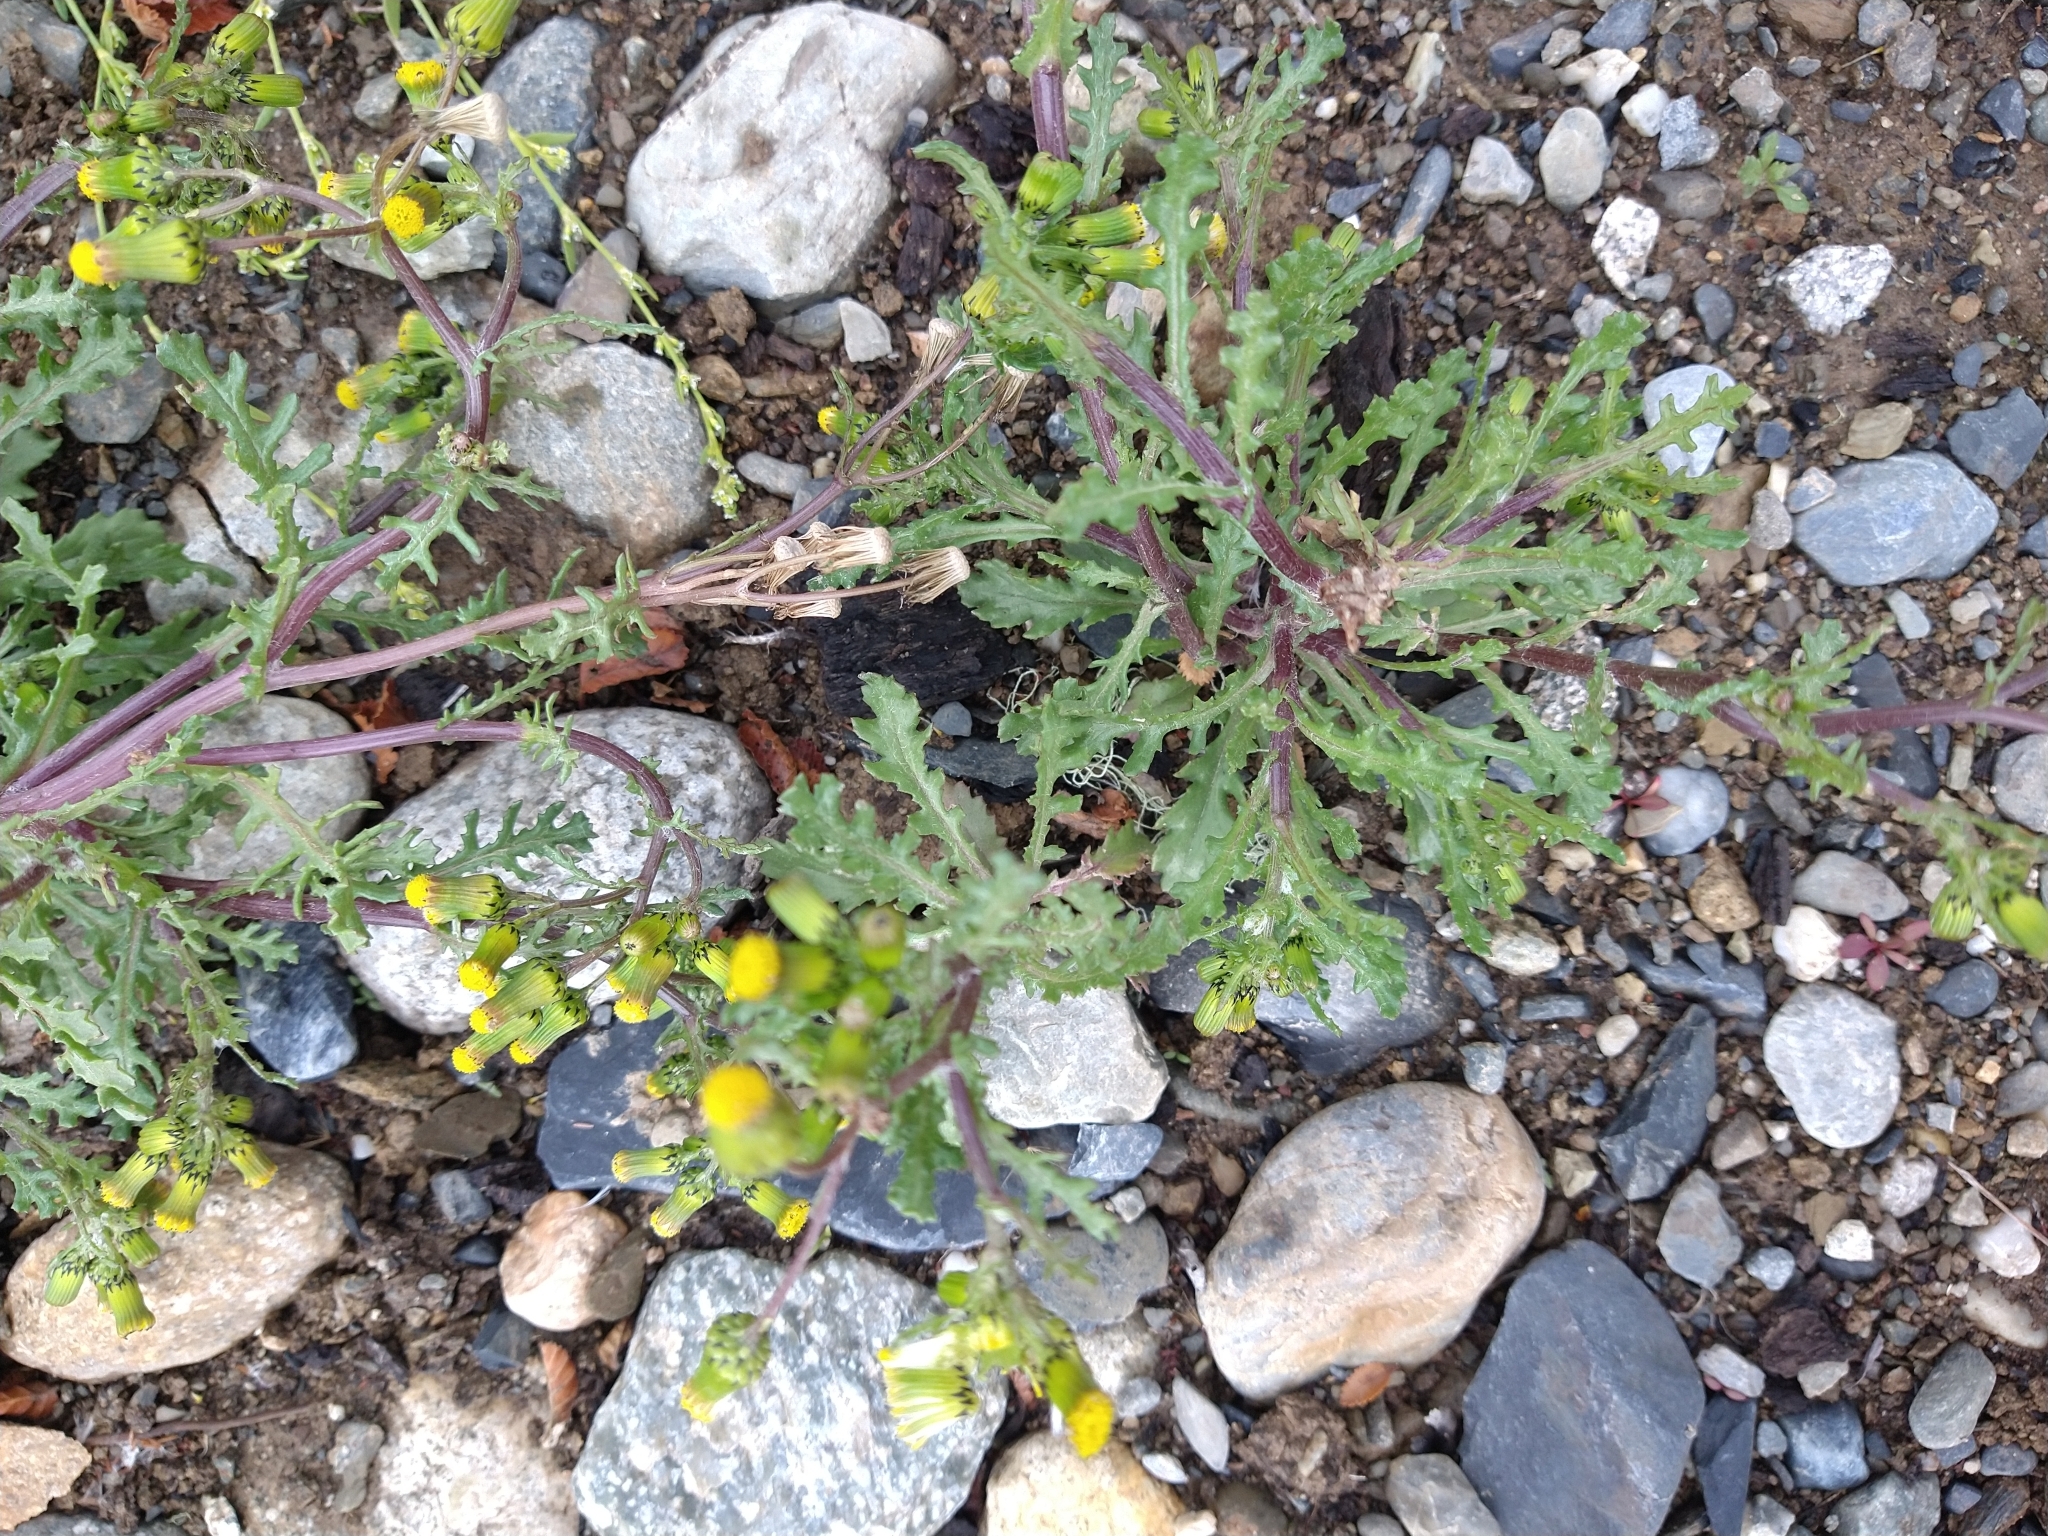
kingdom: Plantae
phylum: Tracheophyta
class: Magnoliopsida
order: Asterales
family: Asteraceae
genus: Senecio
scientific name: Senecio vulgaris
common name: Old-man-in-the-spring
